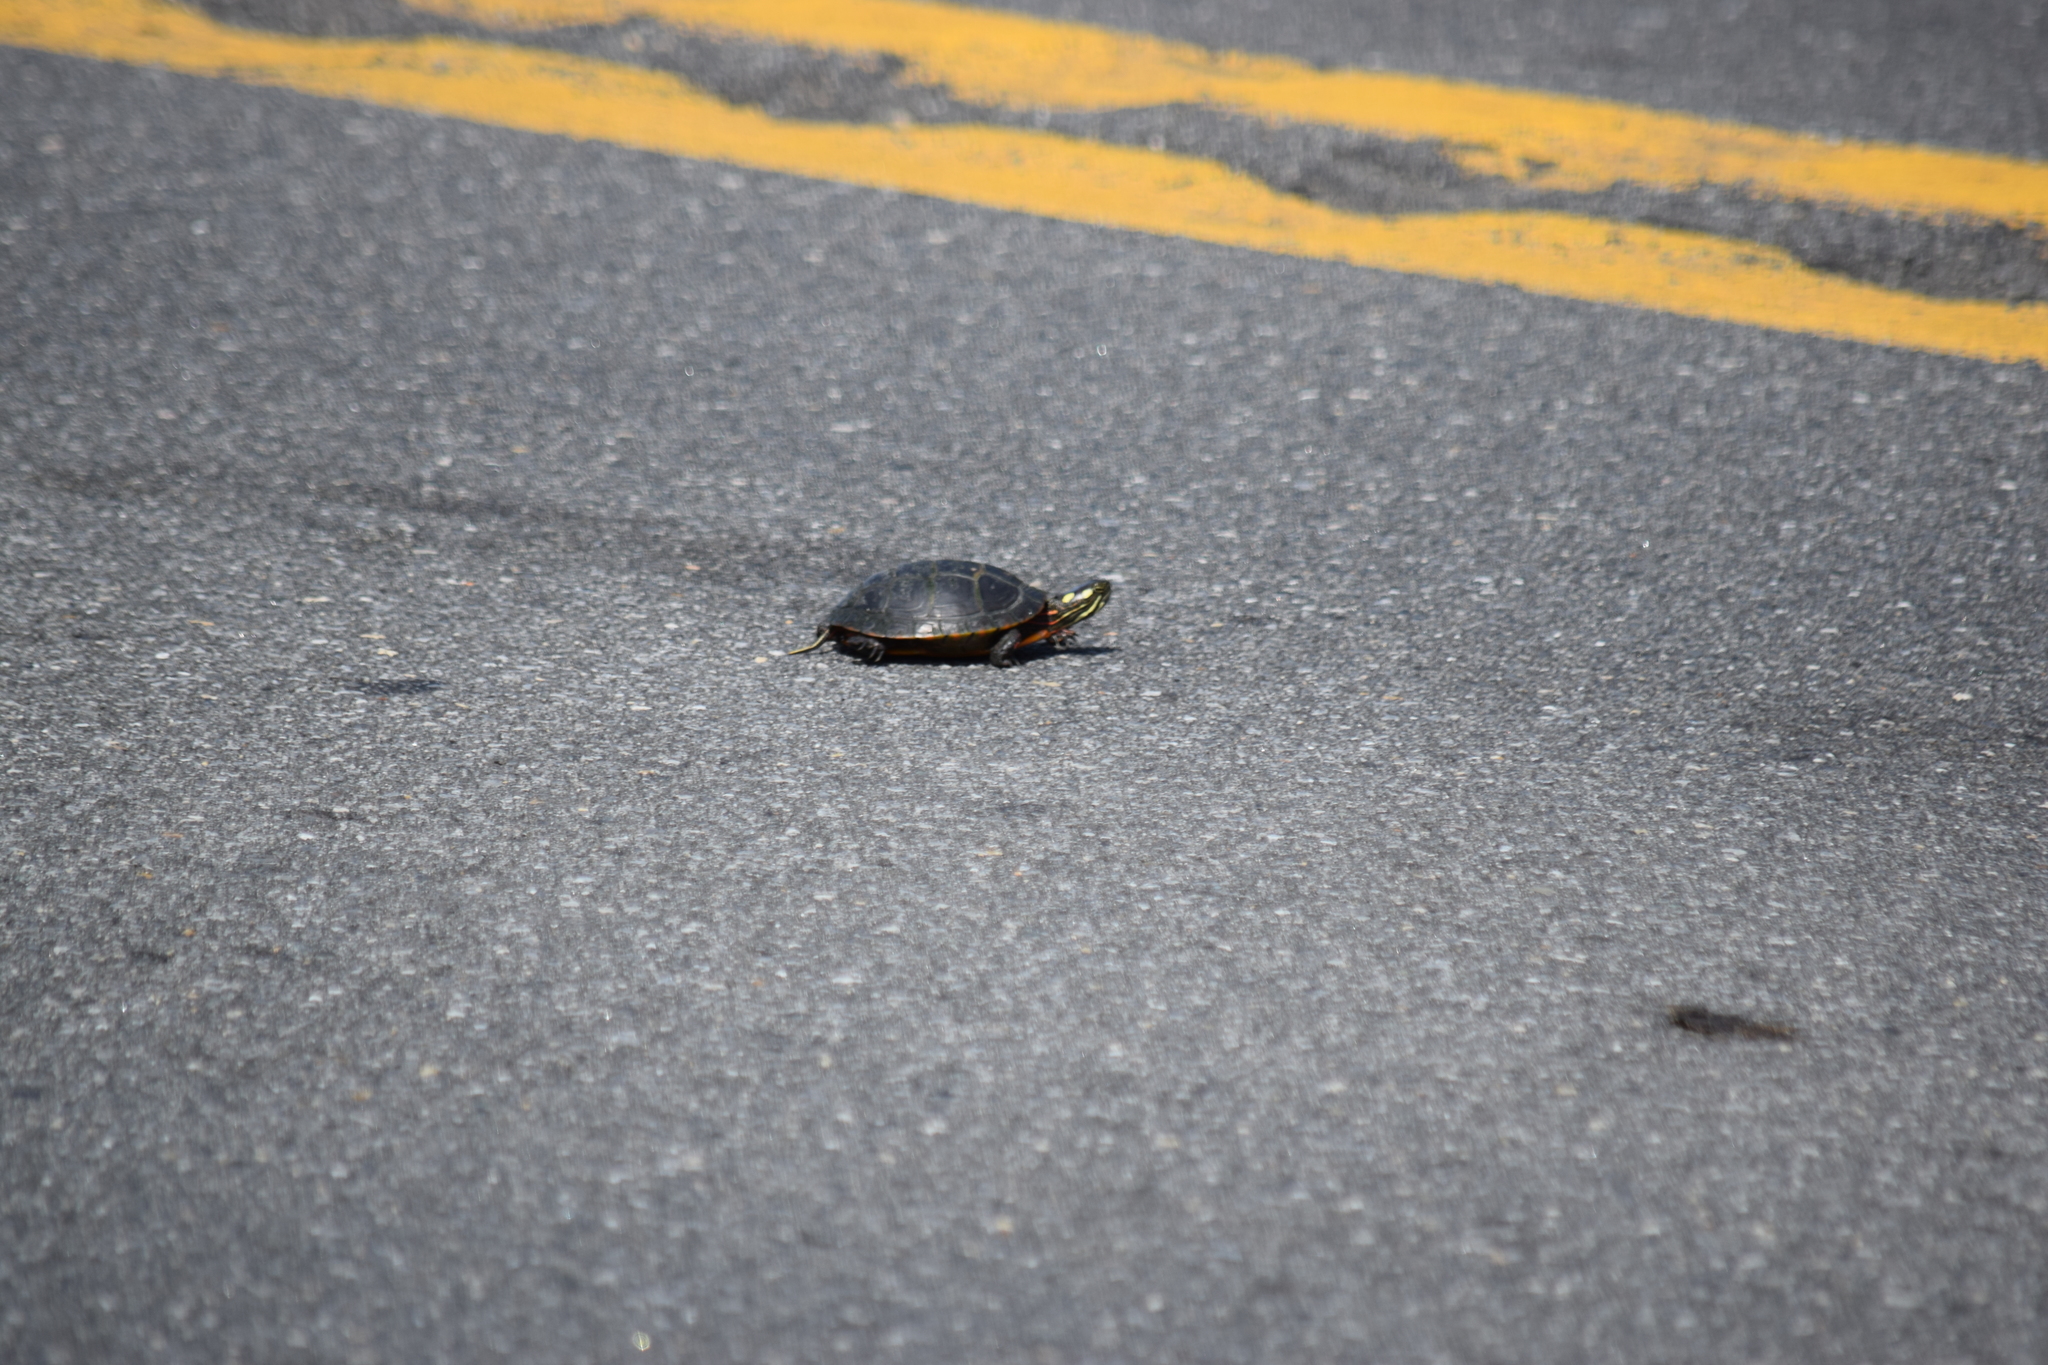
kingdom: Animalia
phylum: Chordata
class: Testudines
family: Emydidae
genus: Chrysemys
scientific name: Chrysemys picta
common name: Painted turtle
